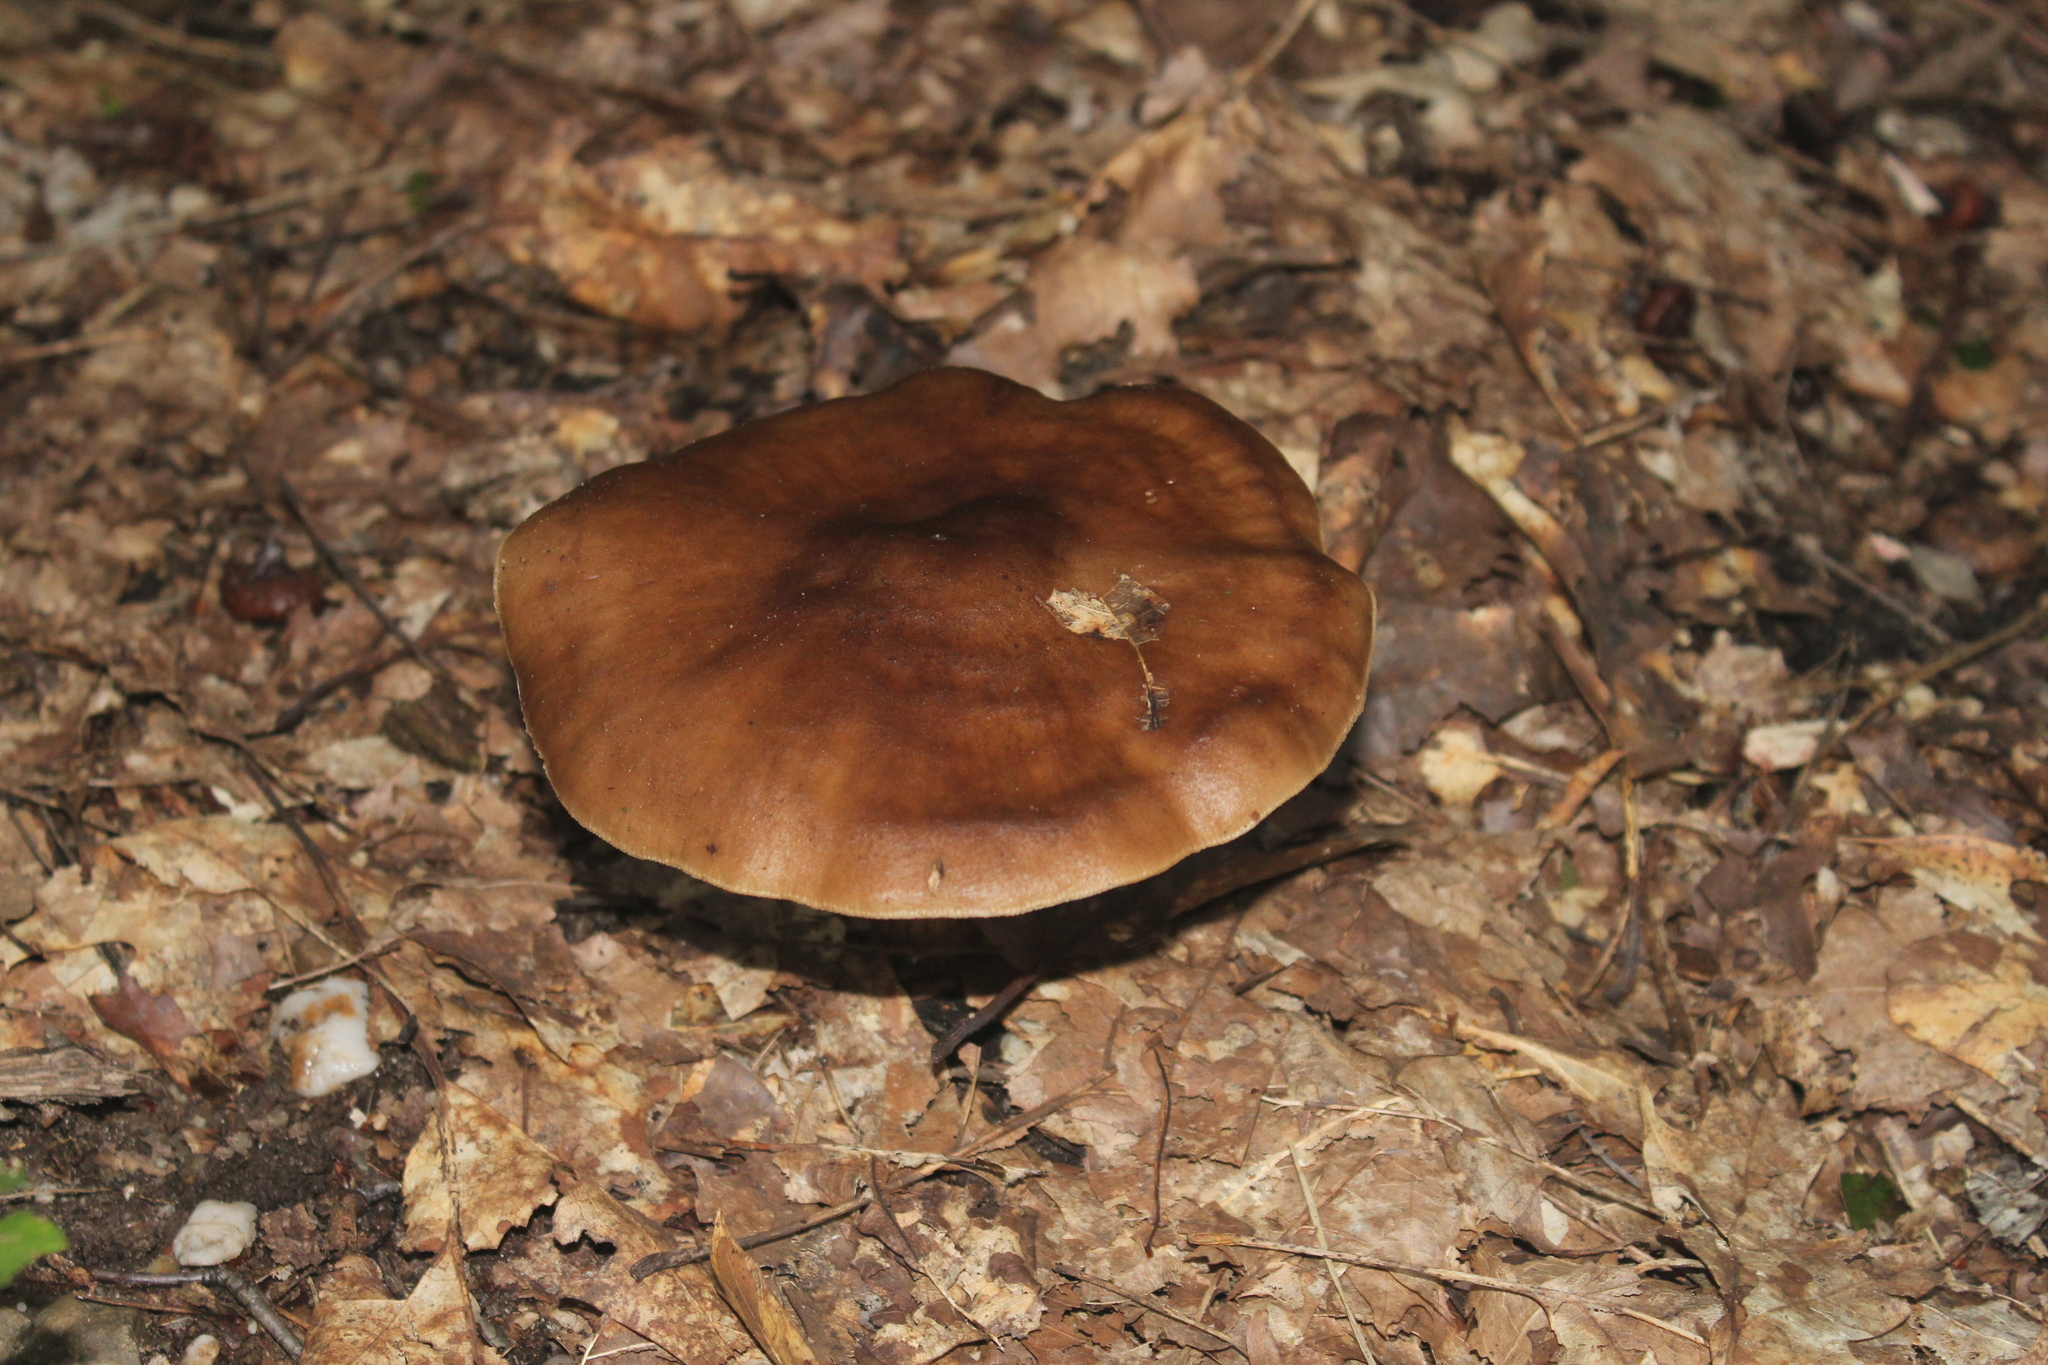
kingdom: Fungi
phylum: Basidiomycota
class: Agaricomycetes
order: Agaricales
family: Pluteaceae
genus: Pluteus
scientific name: Pluteus cervinus
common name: Deer shield
